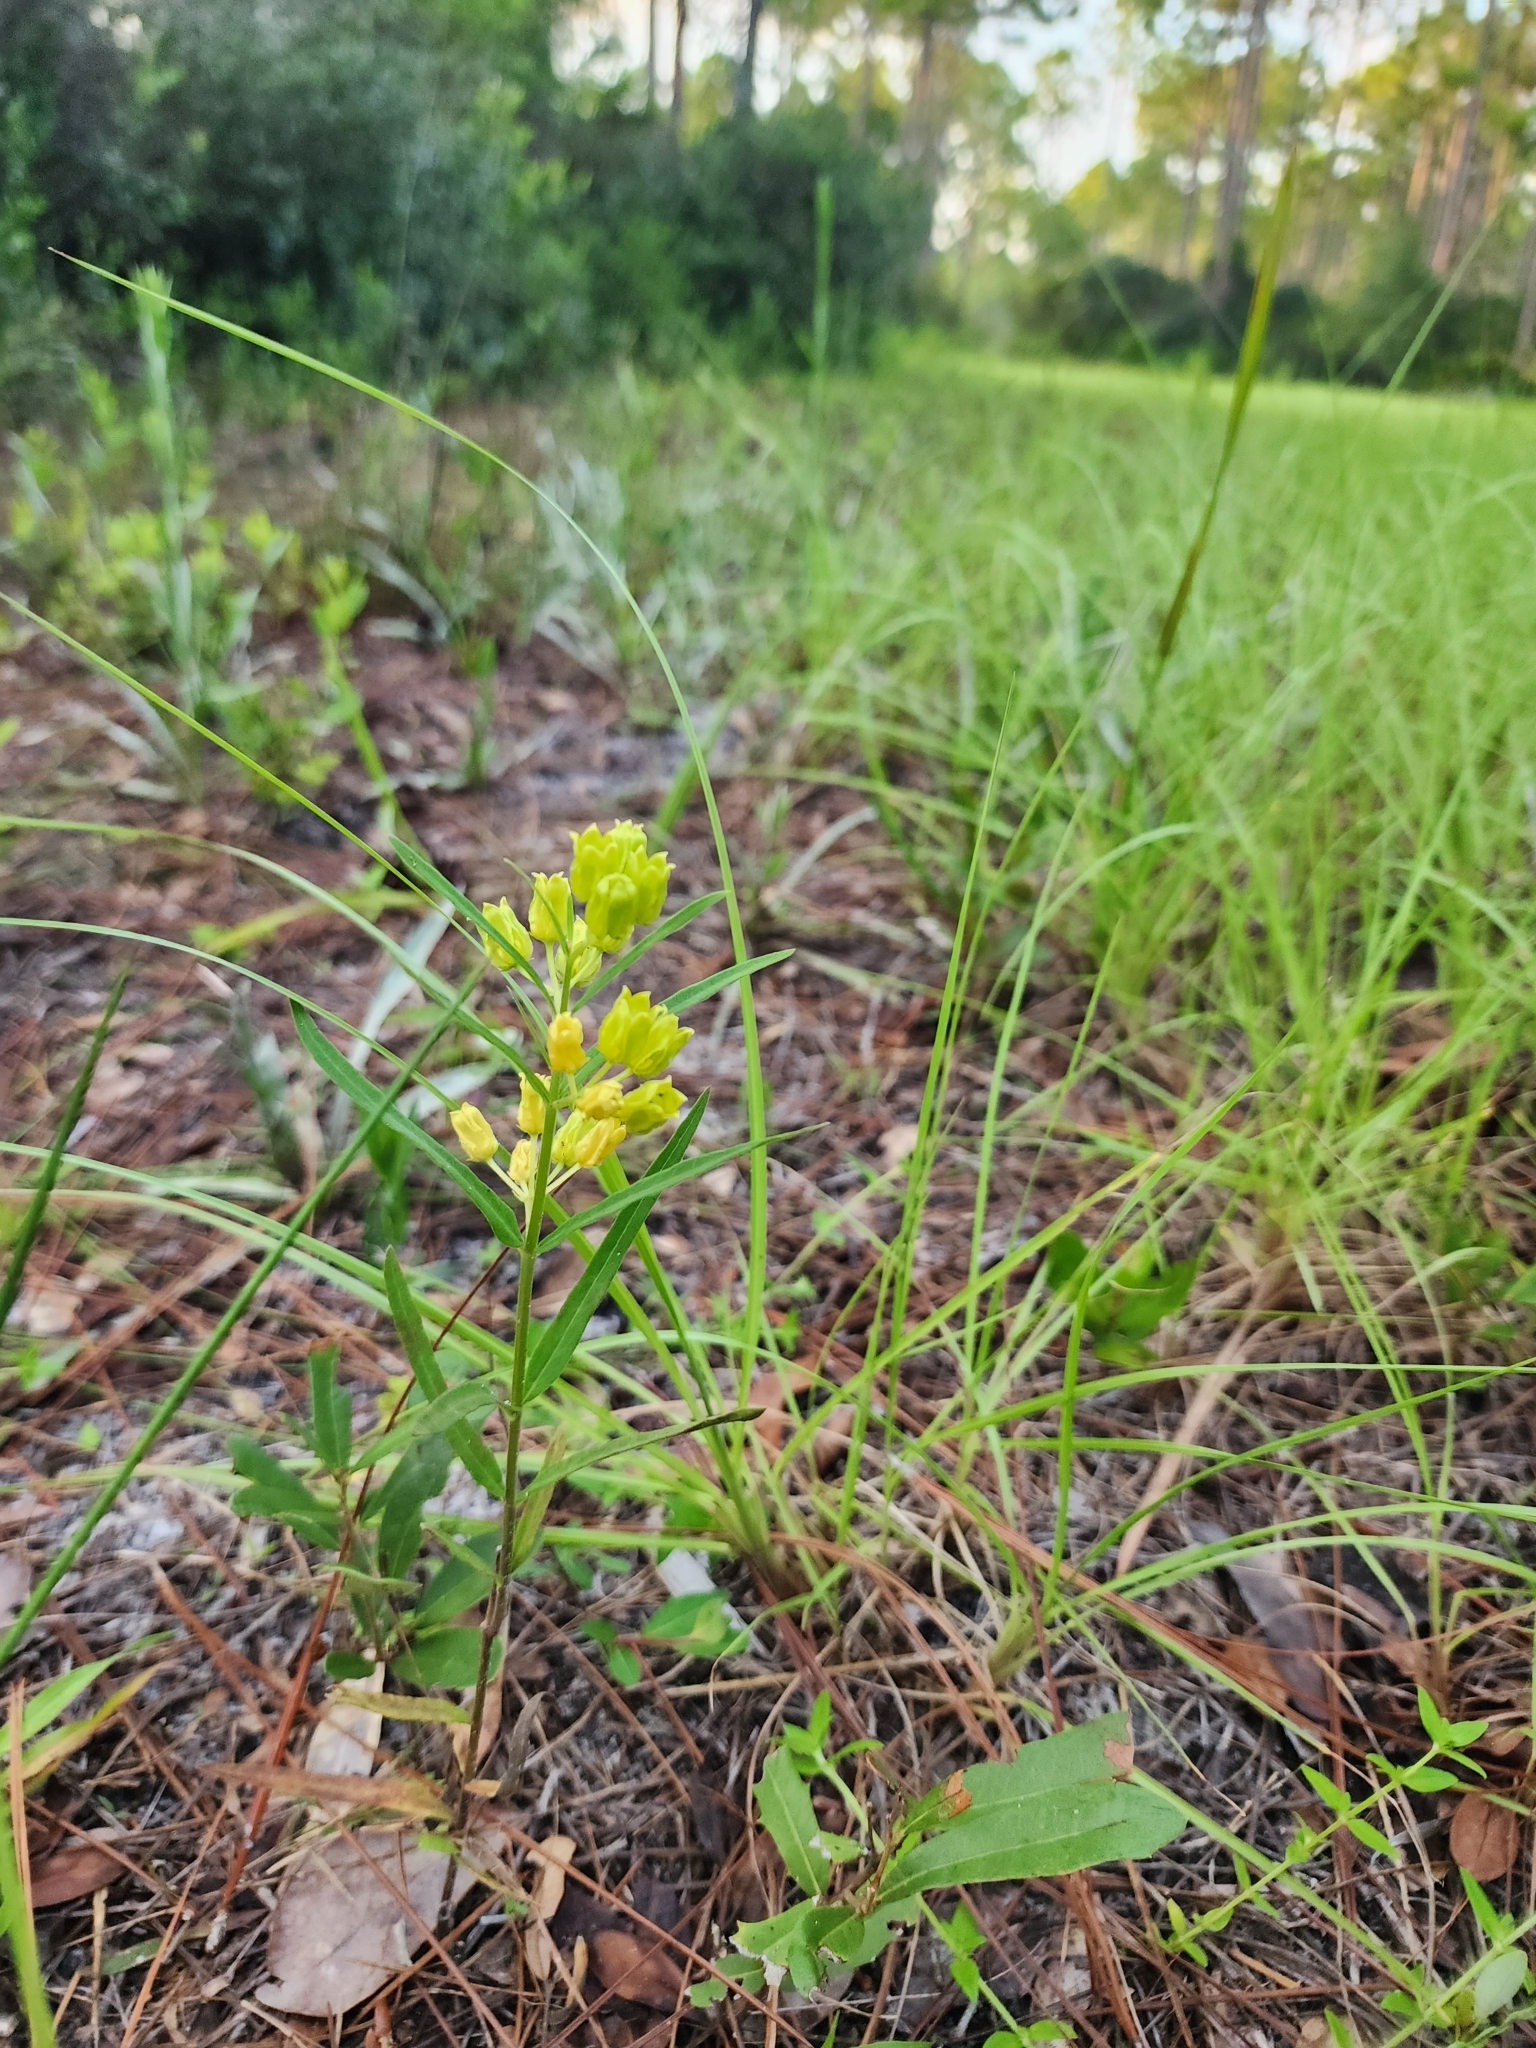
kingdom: Plantae
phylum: Tracheophyta
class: Magnoliopsida
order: Gentianales
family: Apocynaceae
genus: Asclepias
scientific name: Asclepias pedicellata
